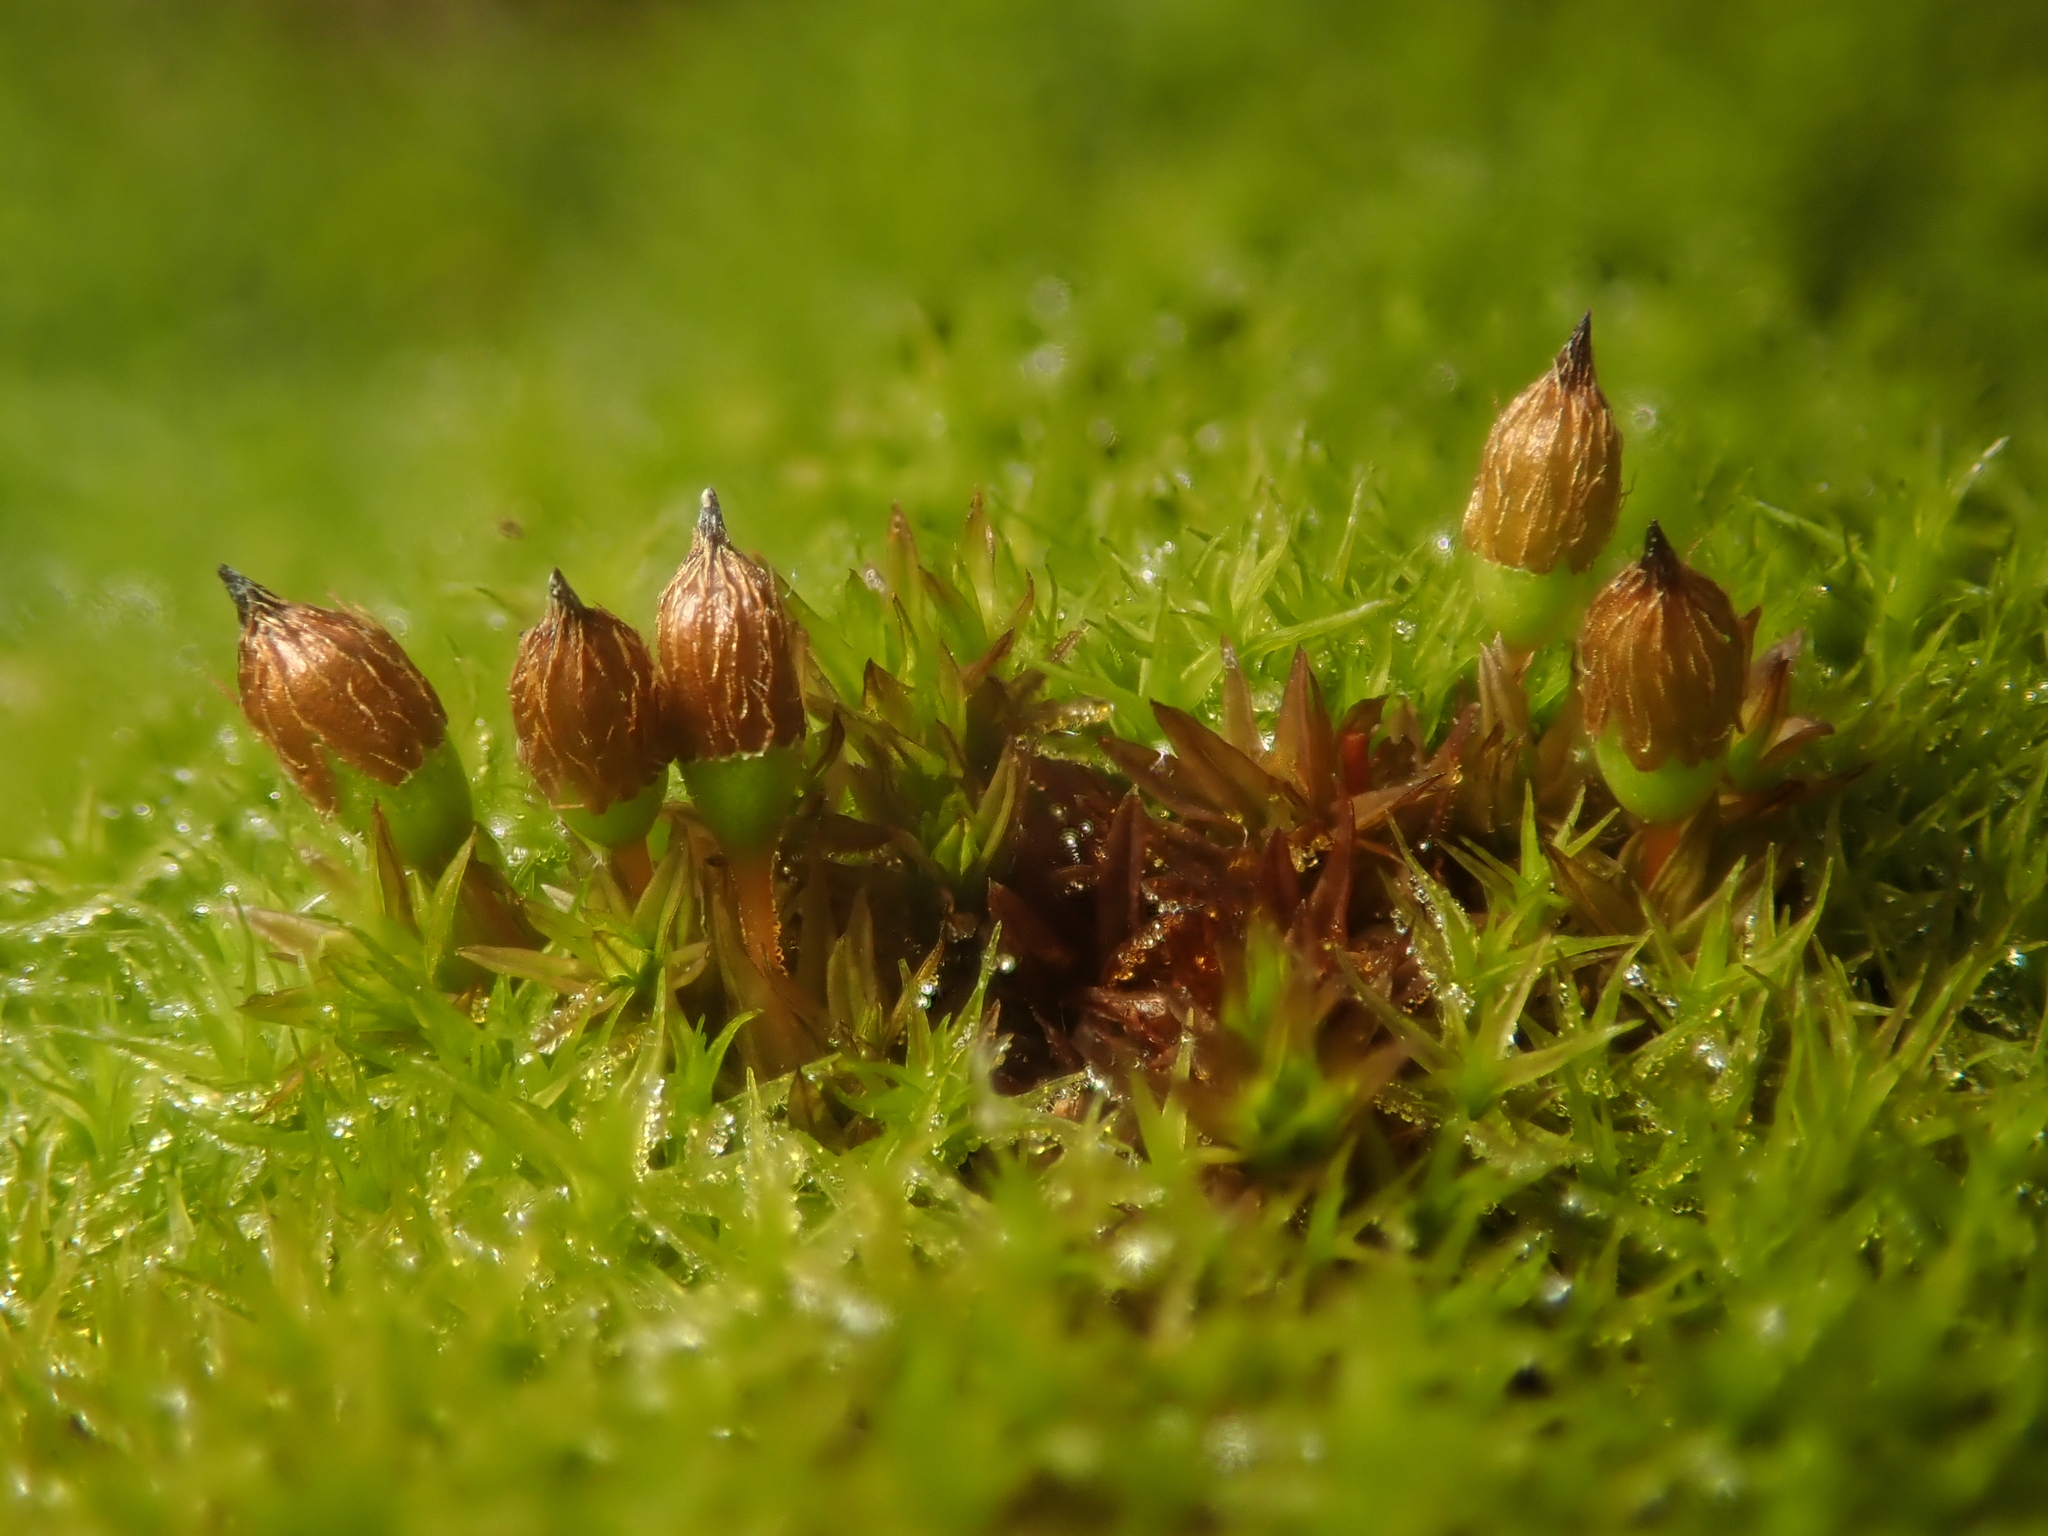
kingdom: Plantae
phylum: Bryophyta
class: Bryopsida
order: Orthotrichales
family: Orthotrichaceae
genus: Orthotrichum
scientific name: Orthotrichum anomalum
